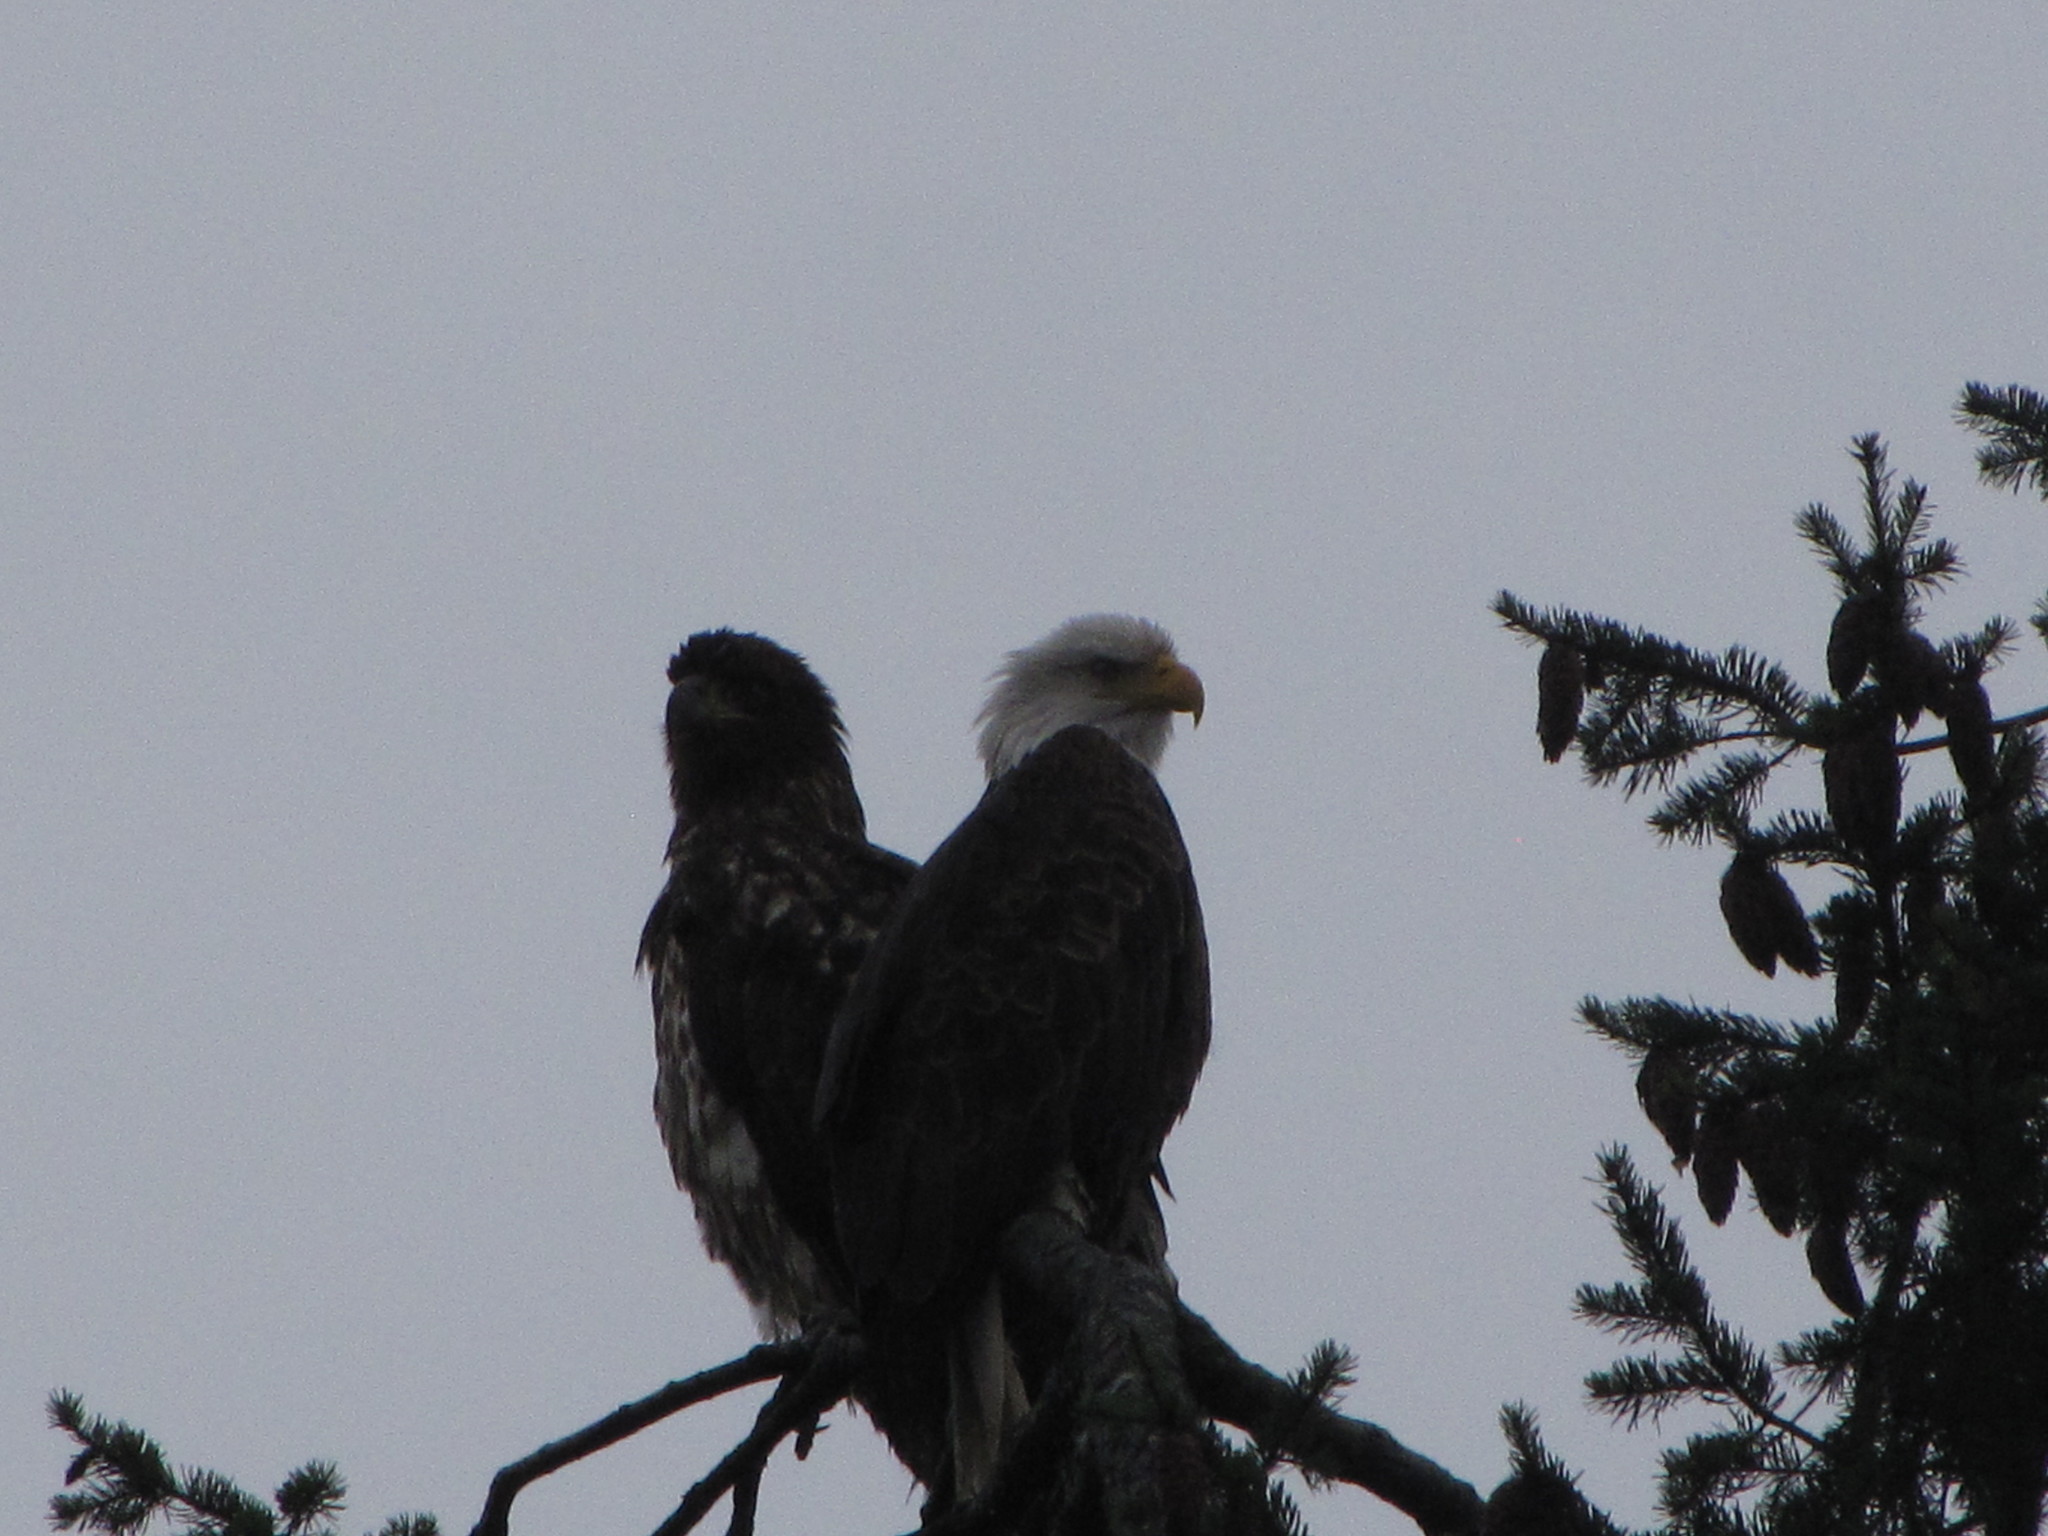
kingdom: Animalia
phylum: Chordata
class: Aves
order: Accipitriformes
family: Accipitridae
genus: Haliaeetus
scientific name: Haliaeetus leucocephalus
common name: Bald eagle
